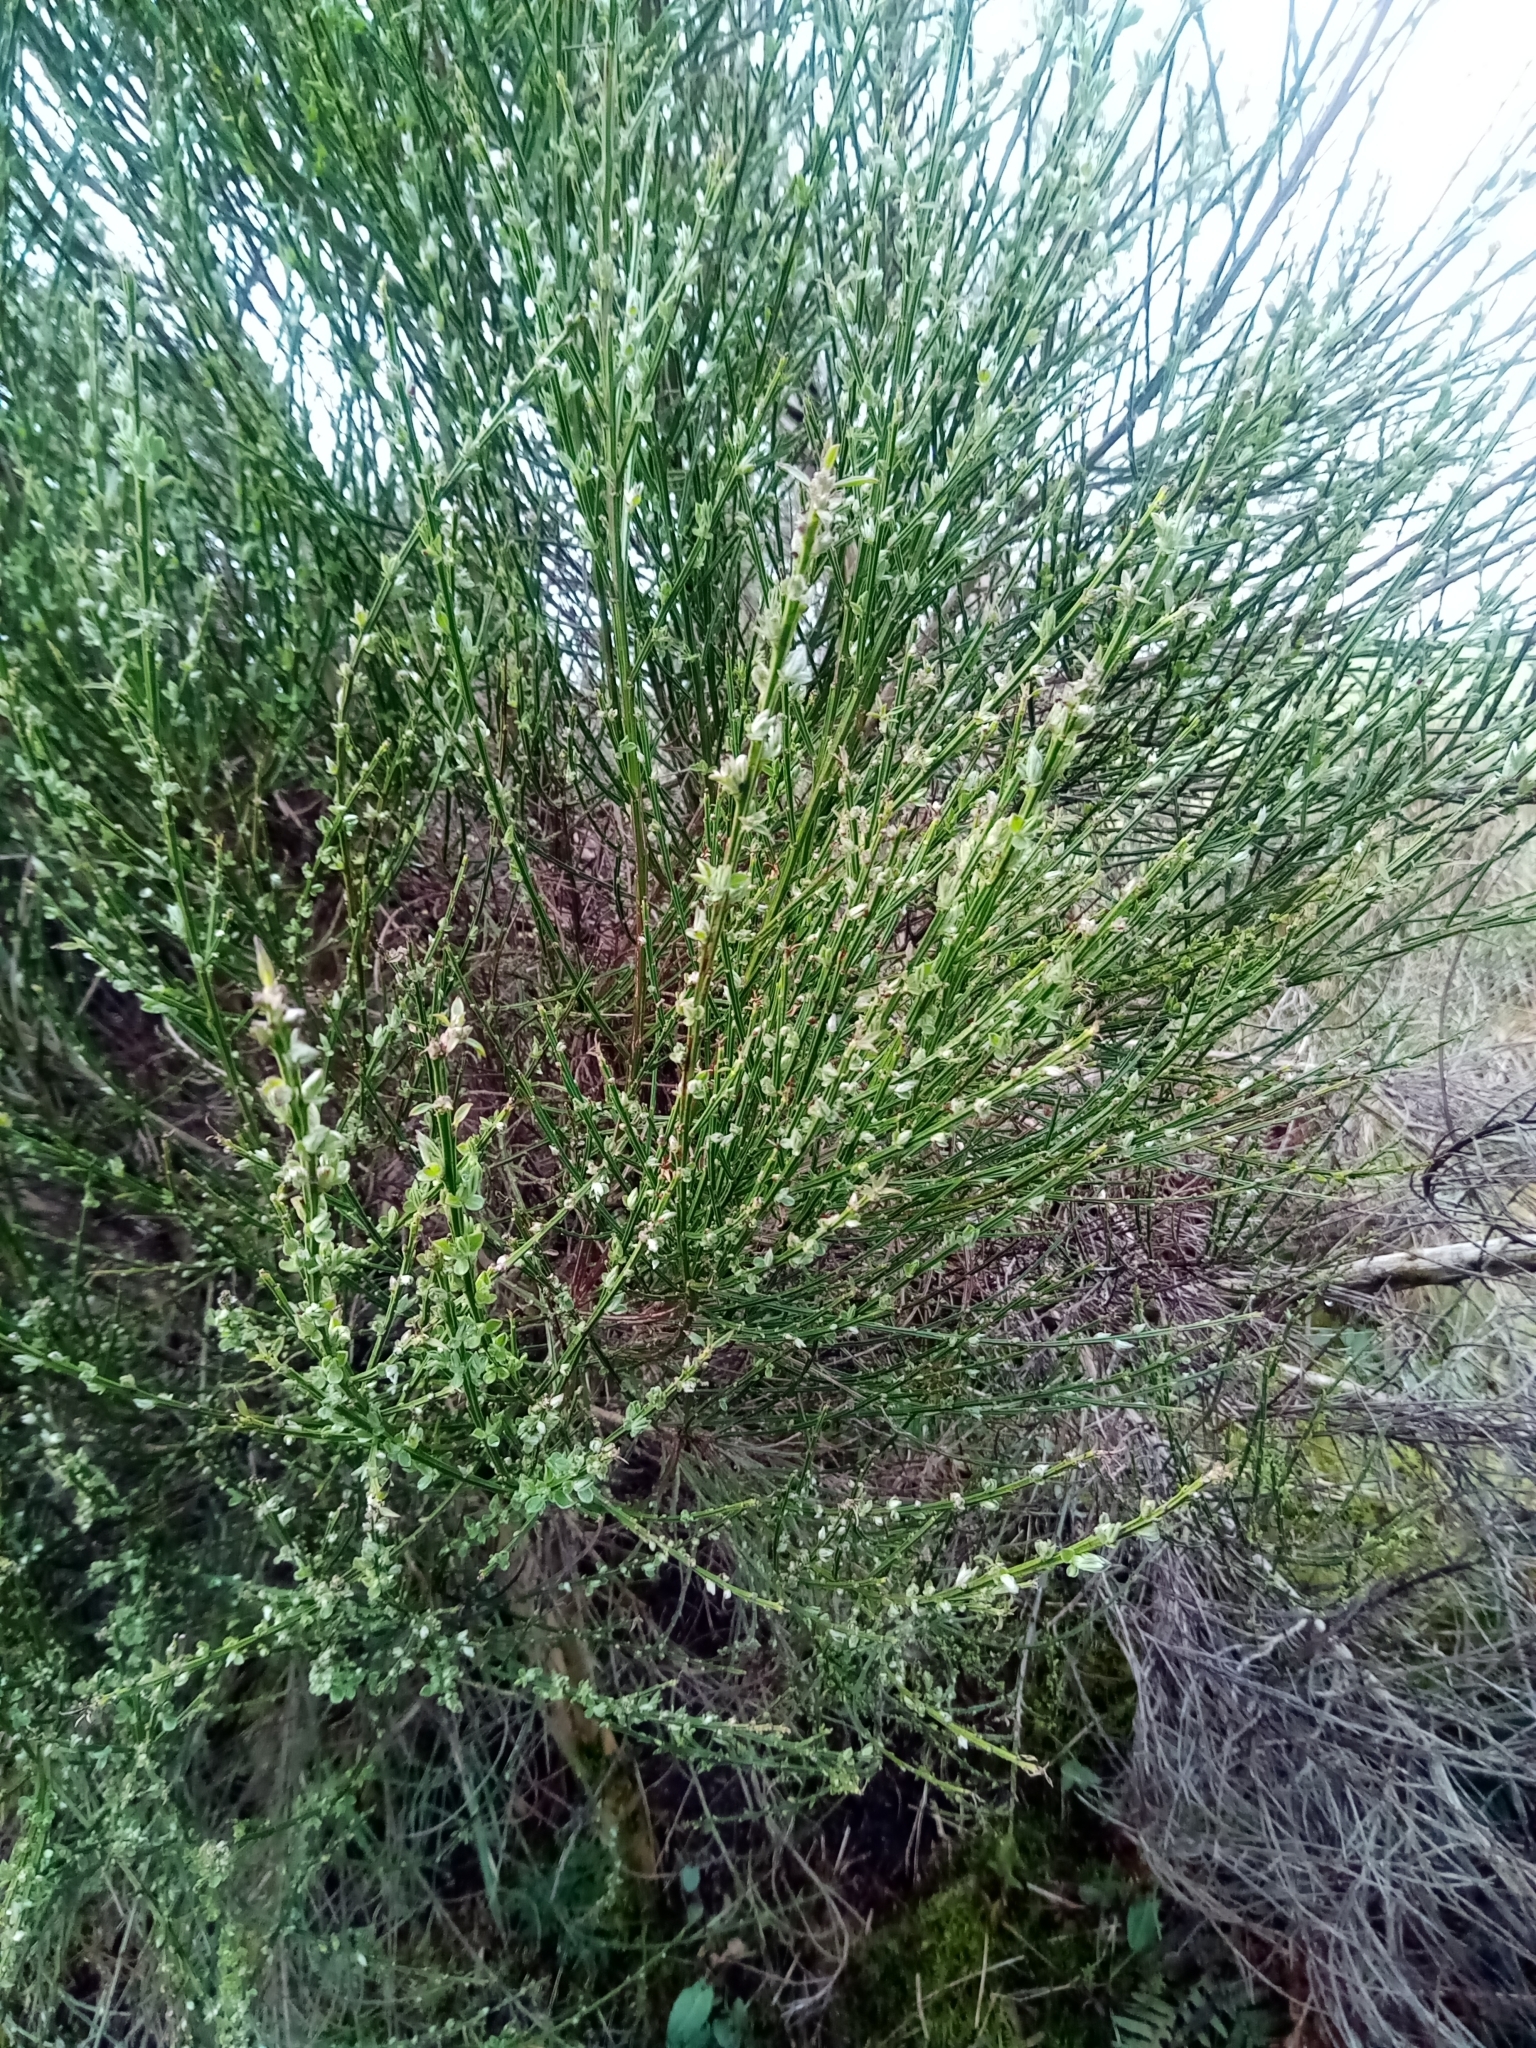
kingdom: Plantae
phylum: Tracheophyta
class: Magnoliopsida
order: Fabales
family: Fabaceae
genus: Cytisus
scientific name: Cytisus scoparius
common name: Scotch broom
